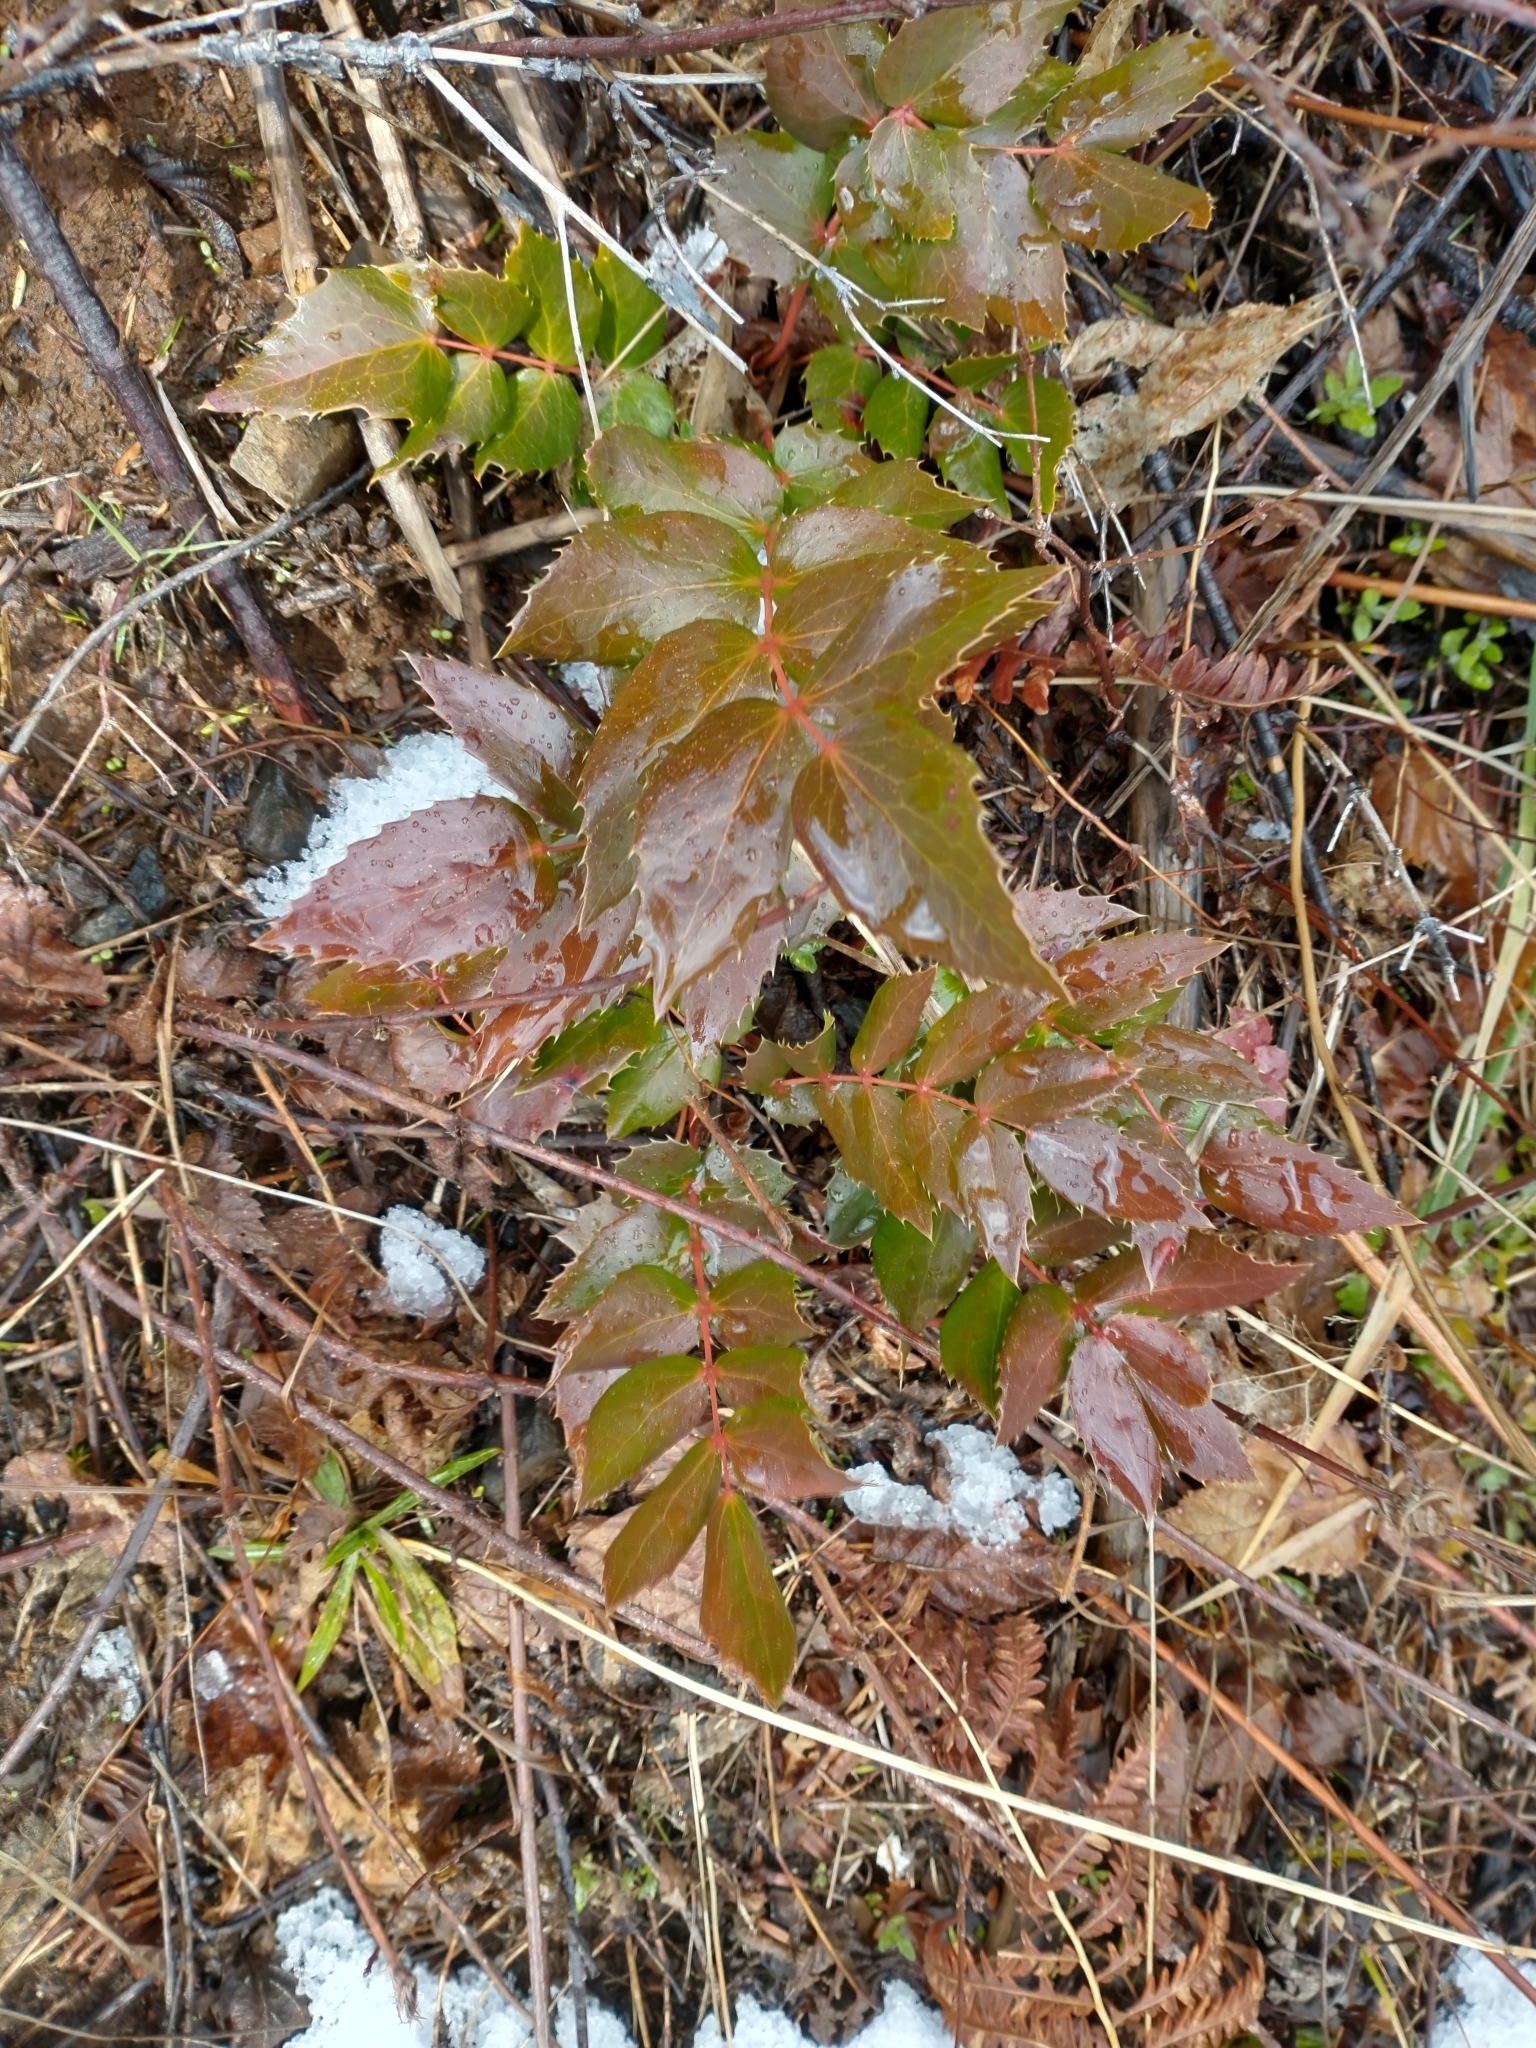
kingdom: Plantae
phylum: Tracheophyta
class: Magnoliopsida
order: Ranunculales
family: Berberidaceae
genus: Mahonia
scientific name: Mahonia nervosa
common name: Cascade oregon-grape
